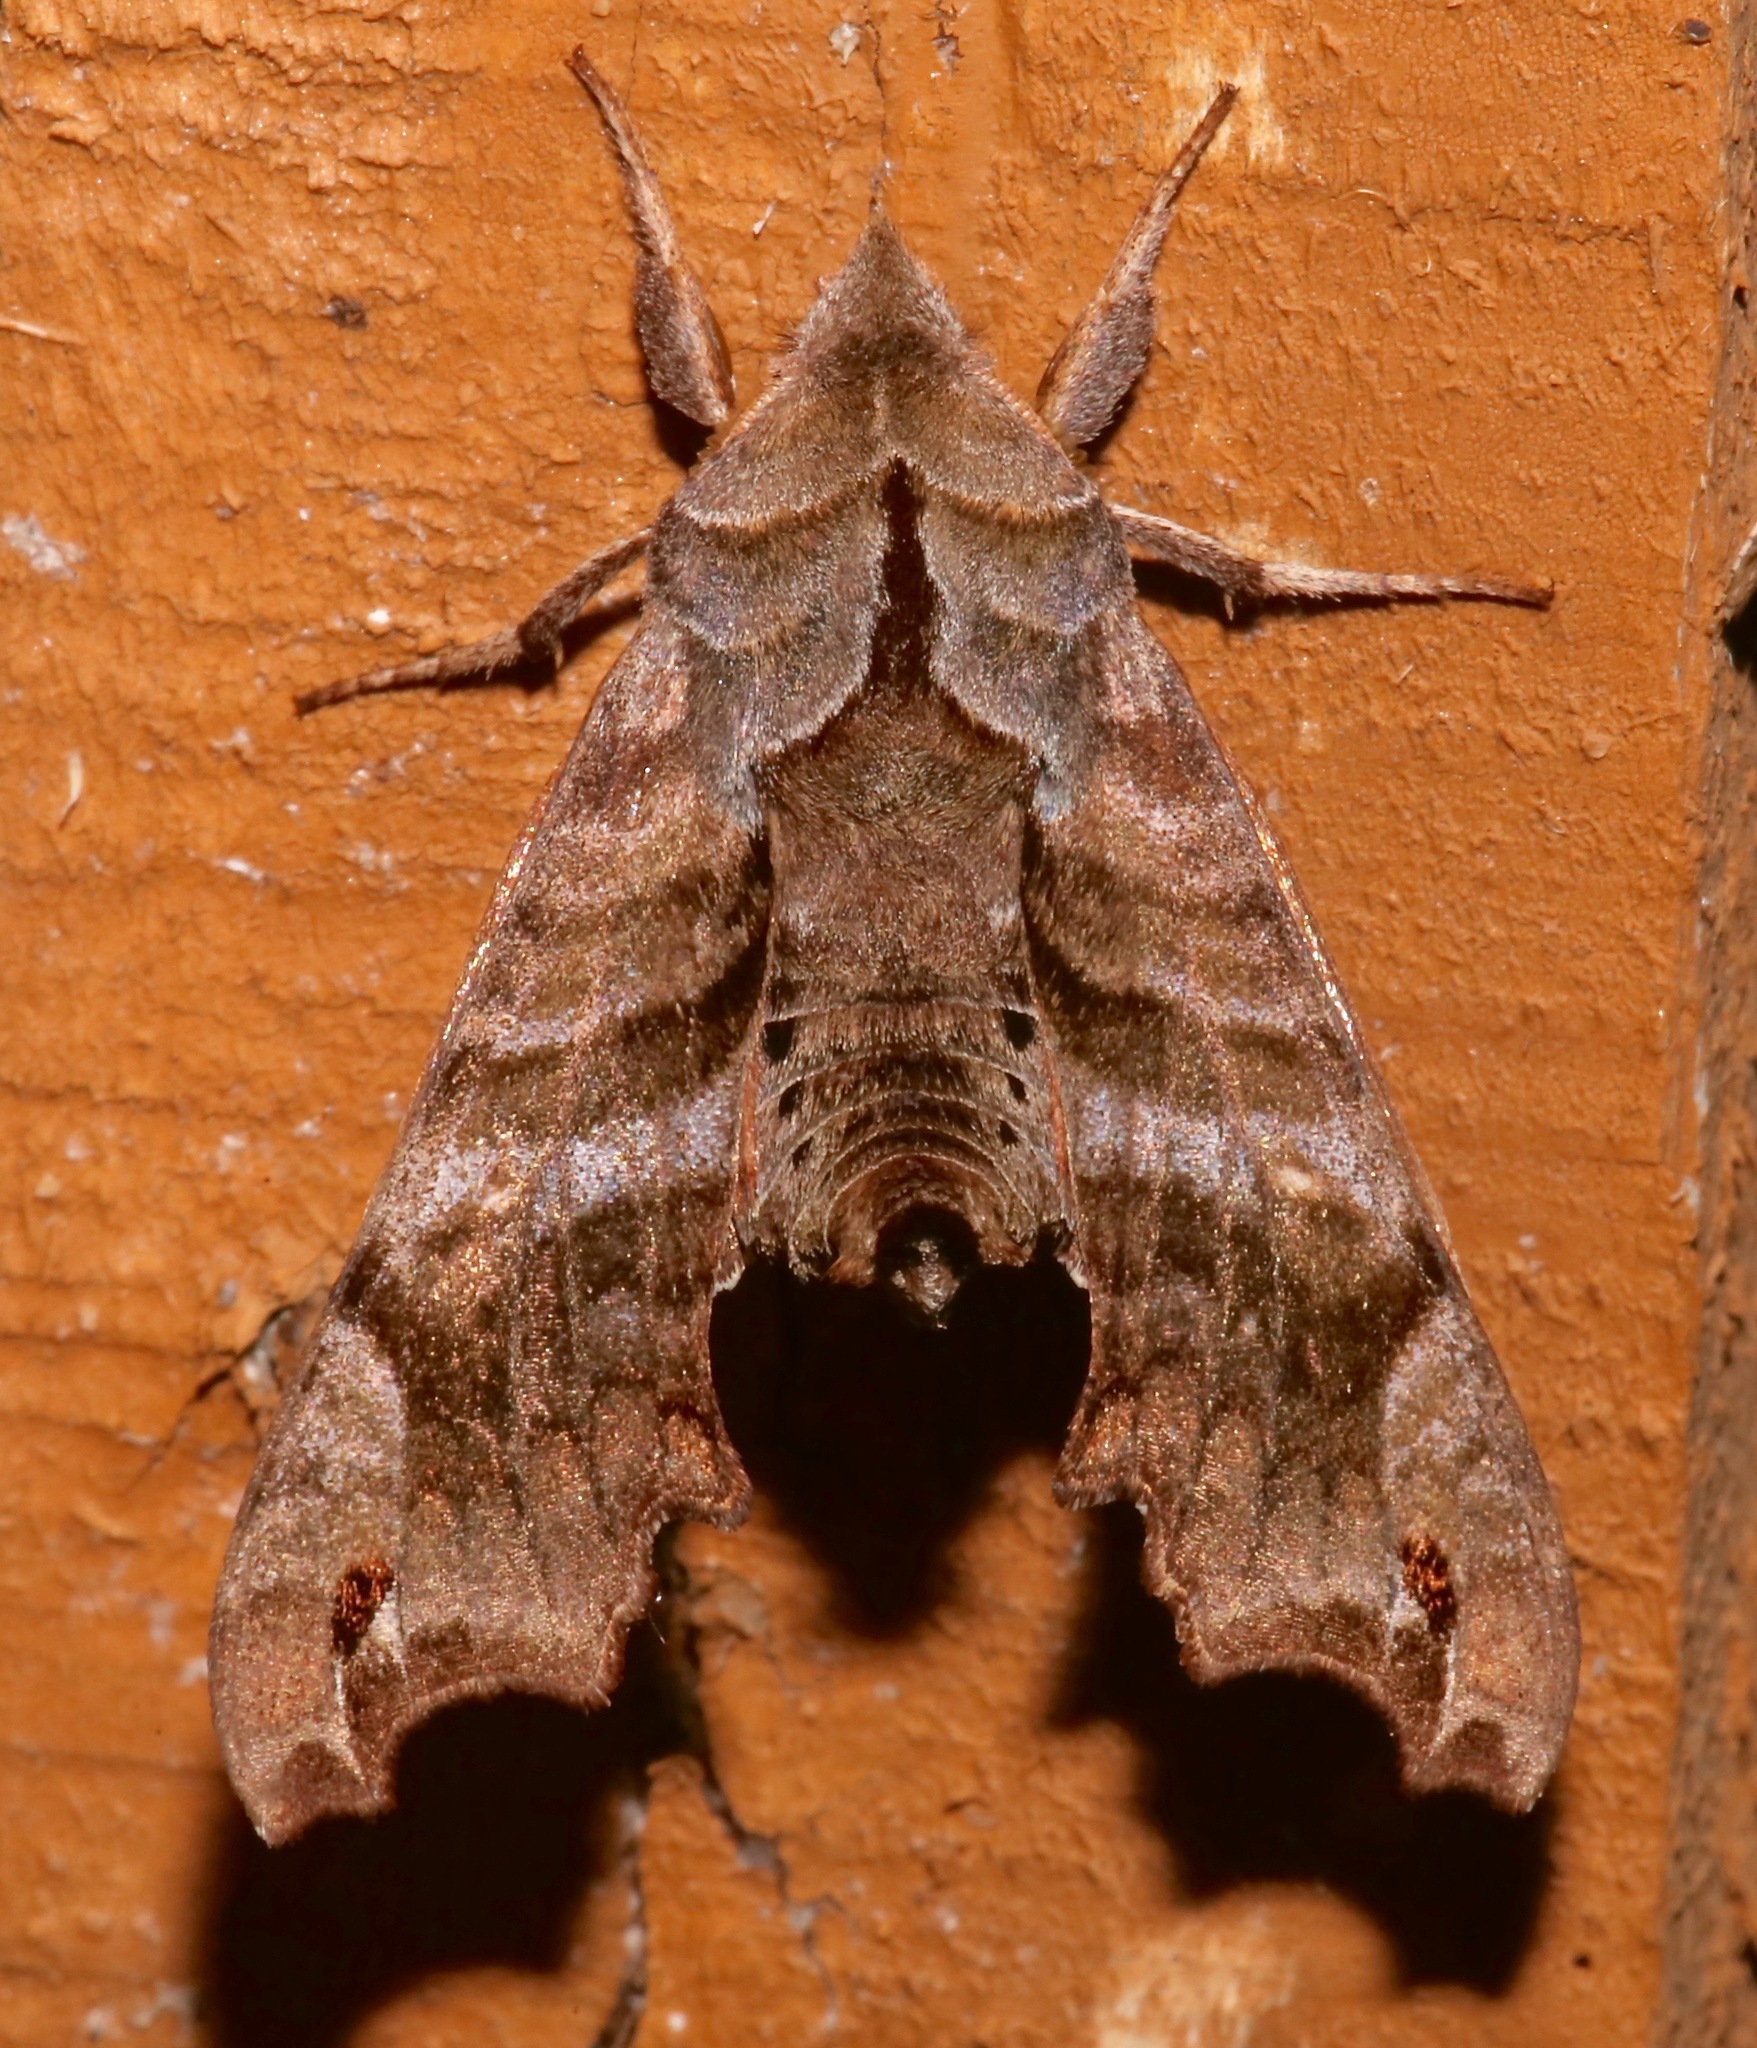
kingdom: Animalia
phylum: Arthropoda
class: Insecta
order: Lepidoptera
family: Sphingidae
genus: Deidamia
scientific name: Deidamia inscriptum
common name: Lettered sphinx
